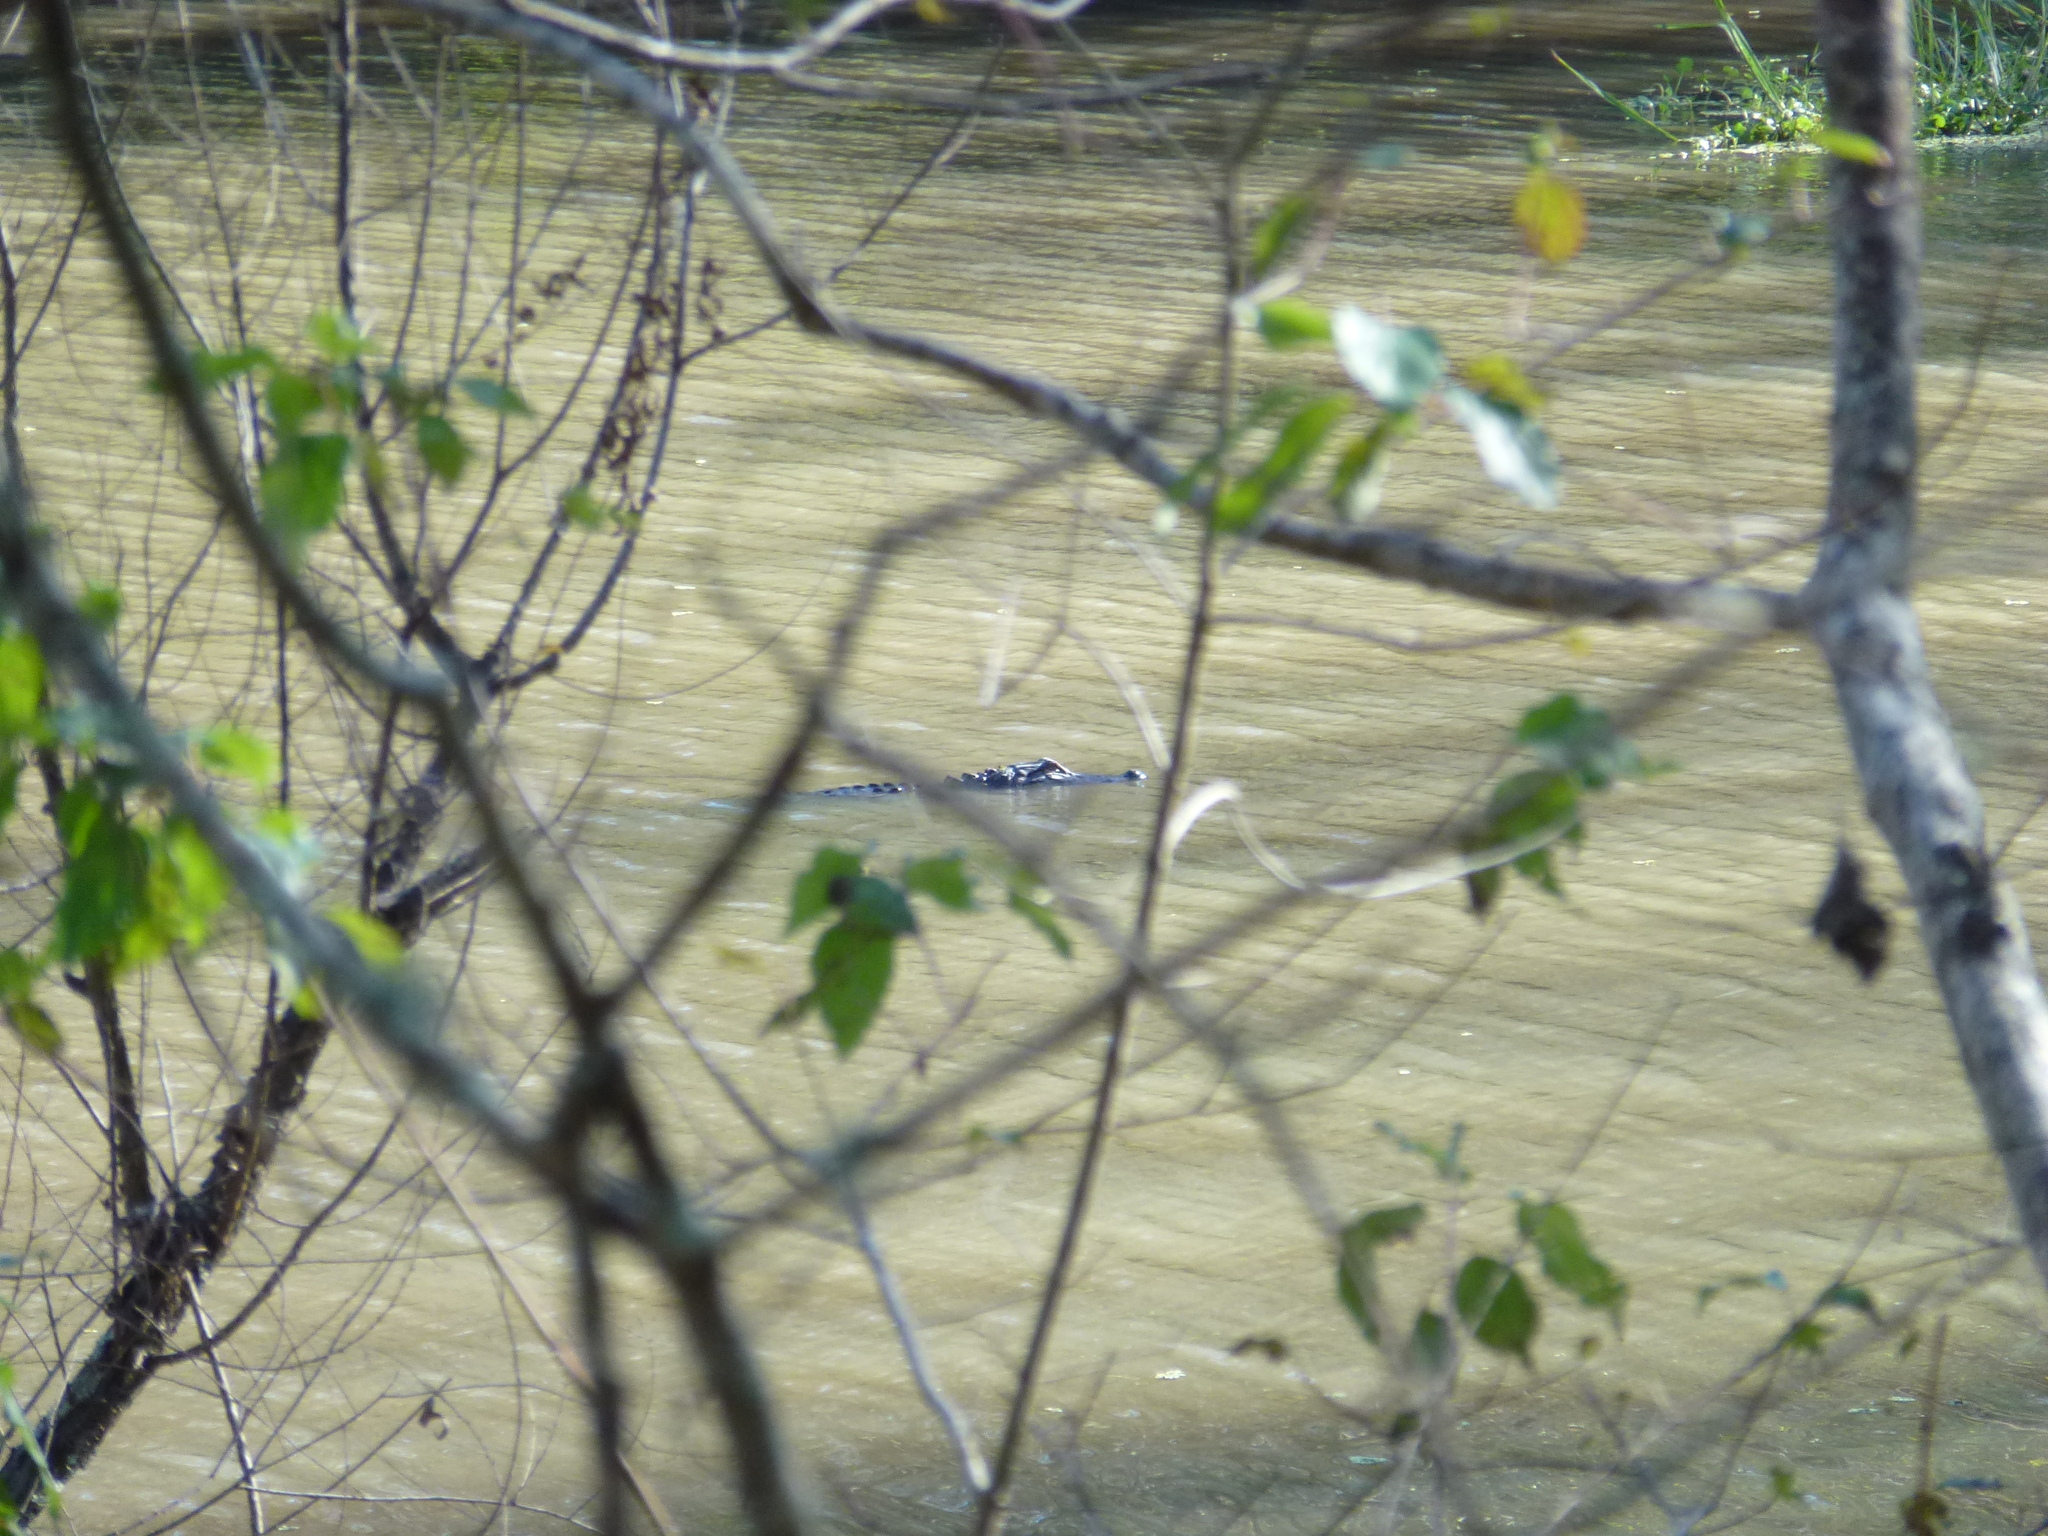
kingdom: Animalia
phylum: Chordata
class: Crocodylia
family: Alligatoridae
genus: Alligator
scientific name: Alligator mississippiensis
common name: American alligator
